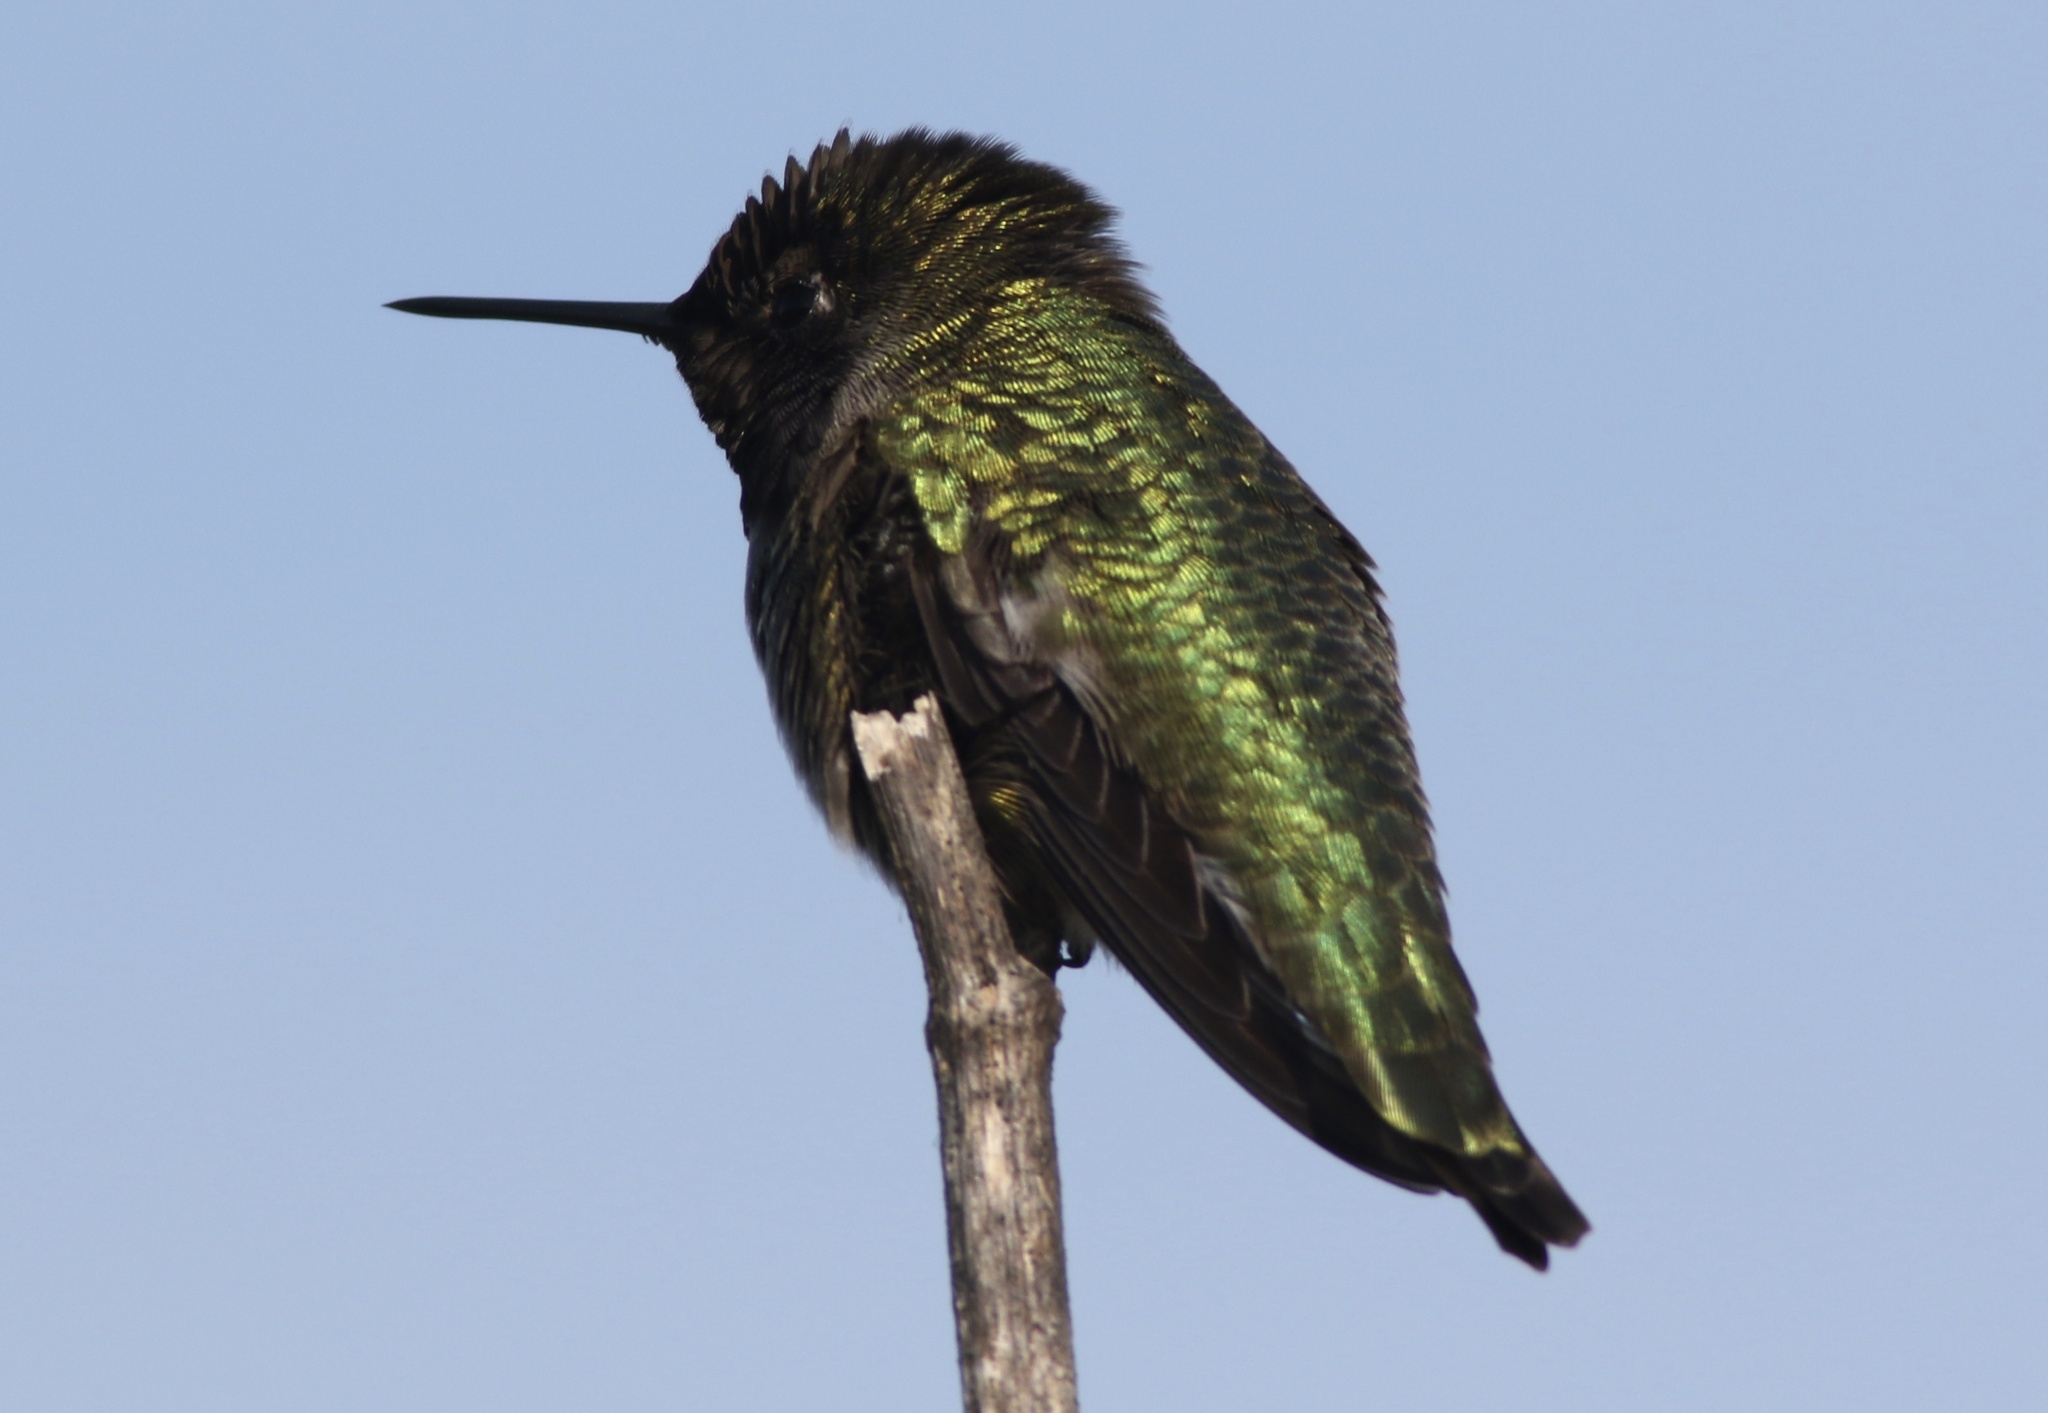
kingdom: Animalia
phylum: Chordata
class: Aves
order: Apodiformes
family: Trochilidae
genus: Calypte
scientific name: Calypte anna
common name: Anna's hummingbird
